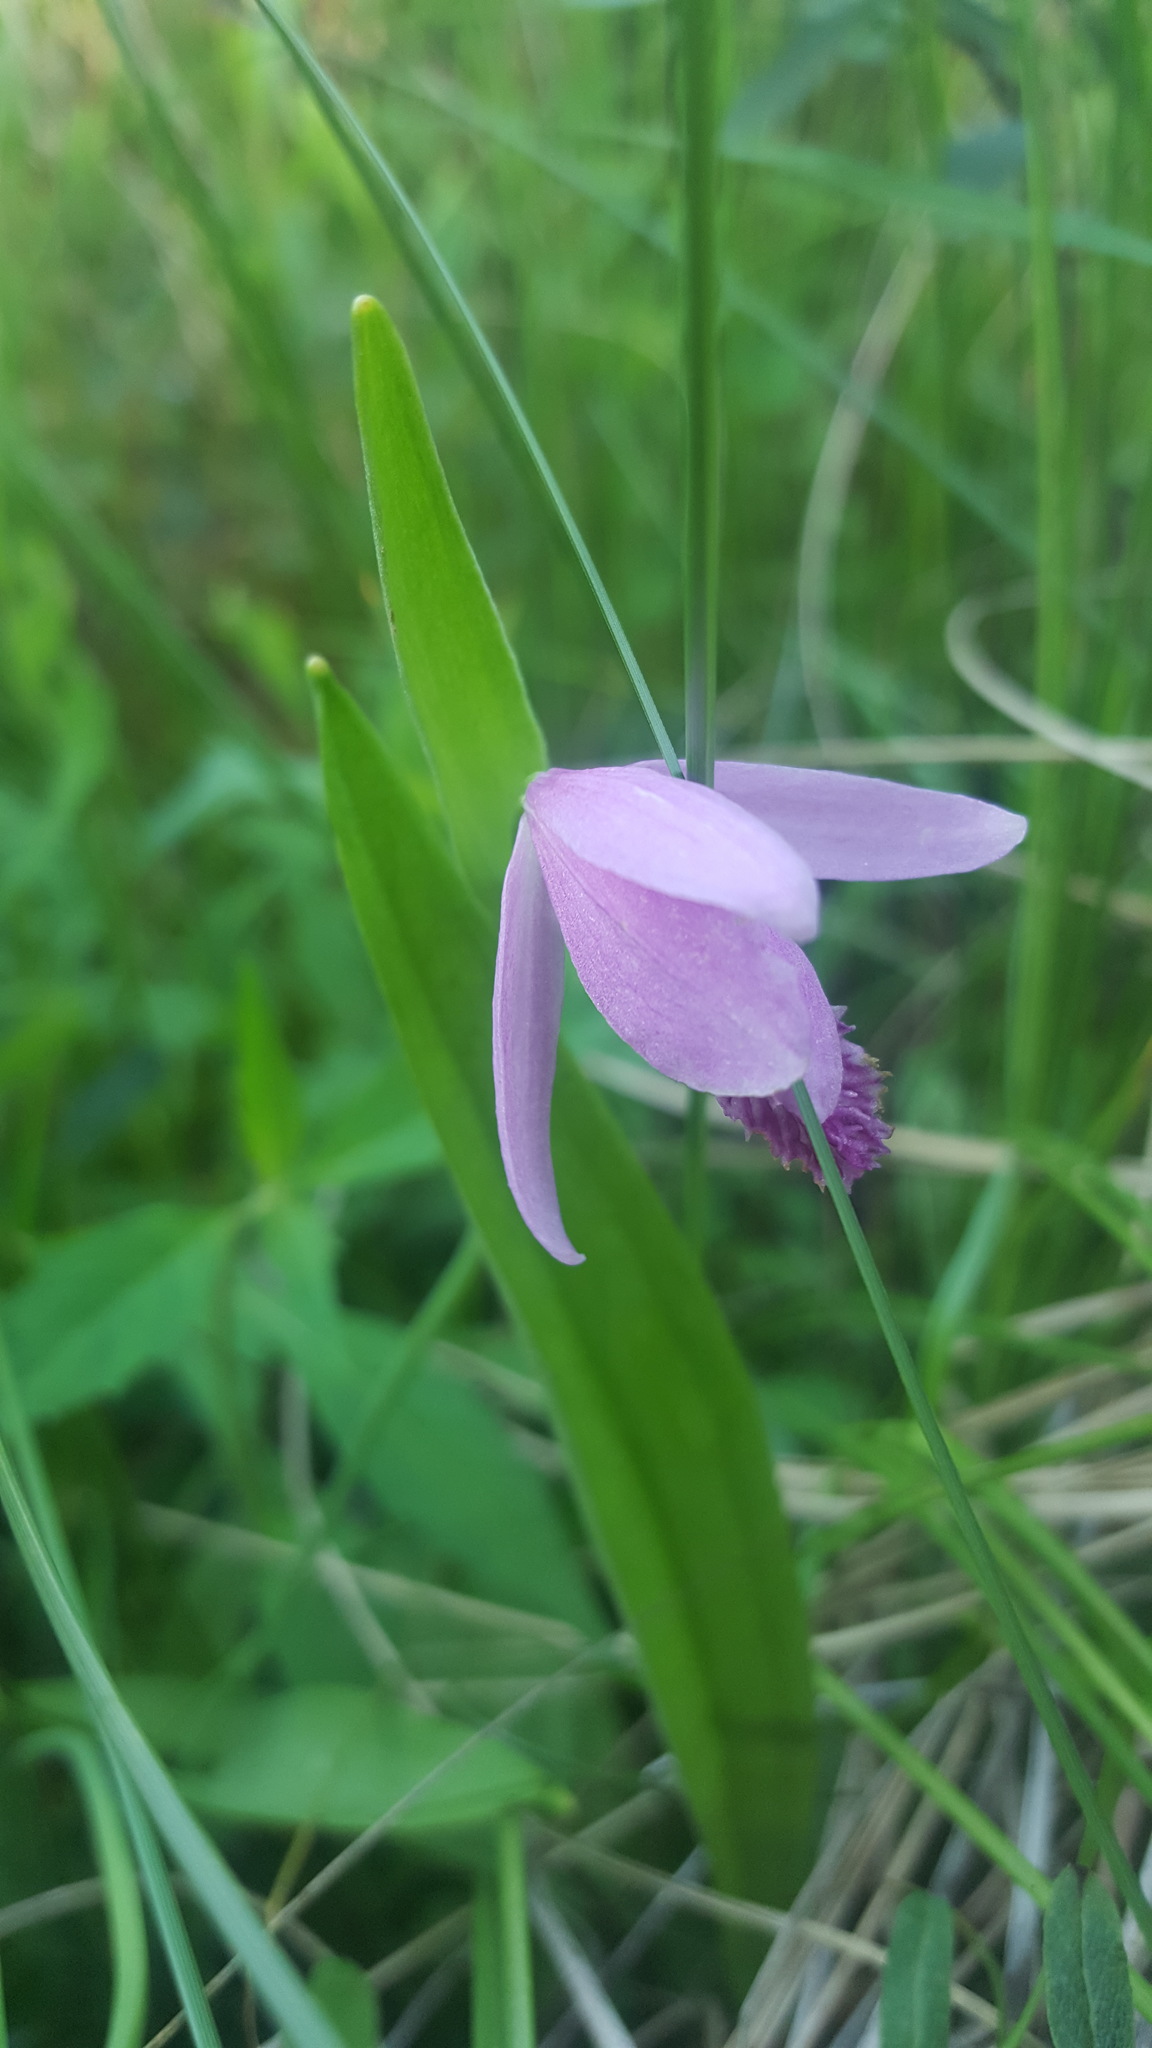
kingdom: Plantae
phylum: Tracheophyta
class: Liliopsida
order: Asparagales
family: Orchidaceae
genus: Pogonia
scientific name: Pogonia ophioglossoides
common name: Rose pogonia
